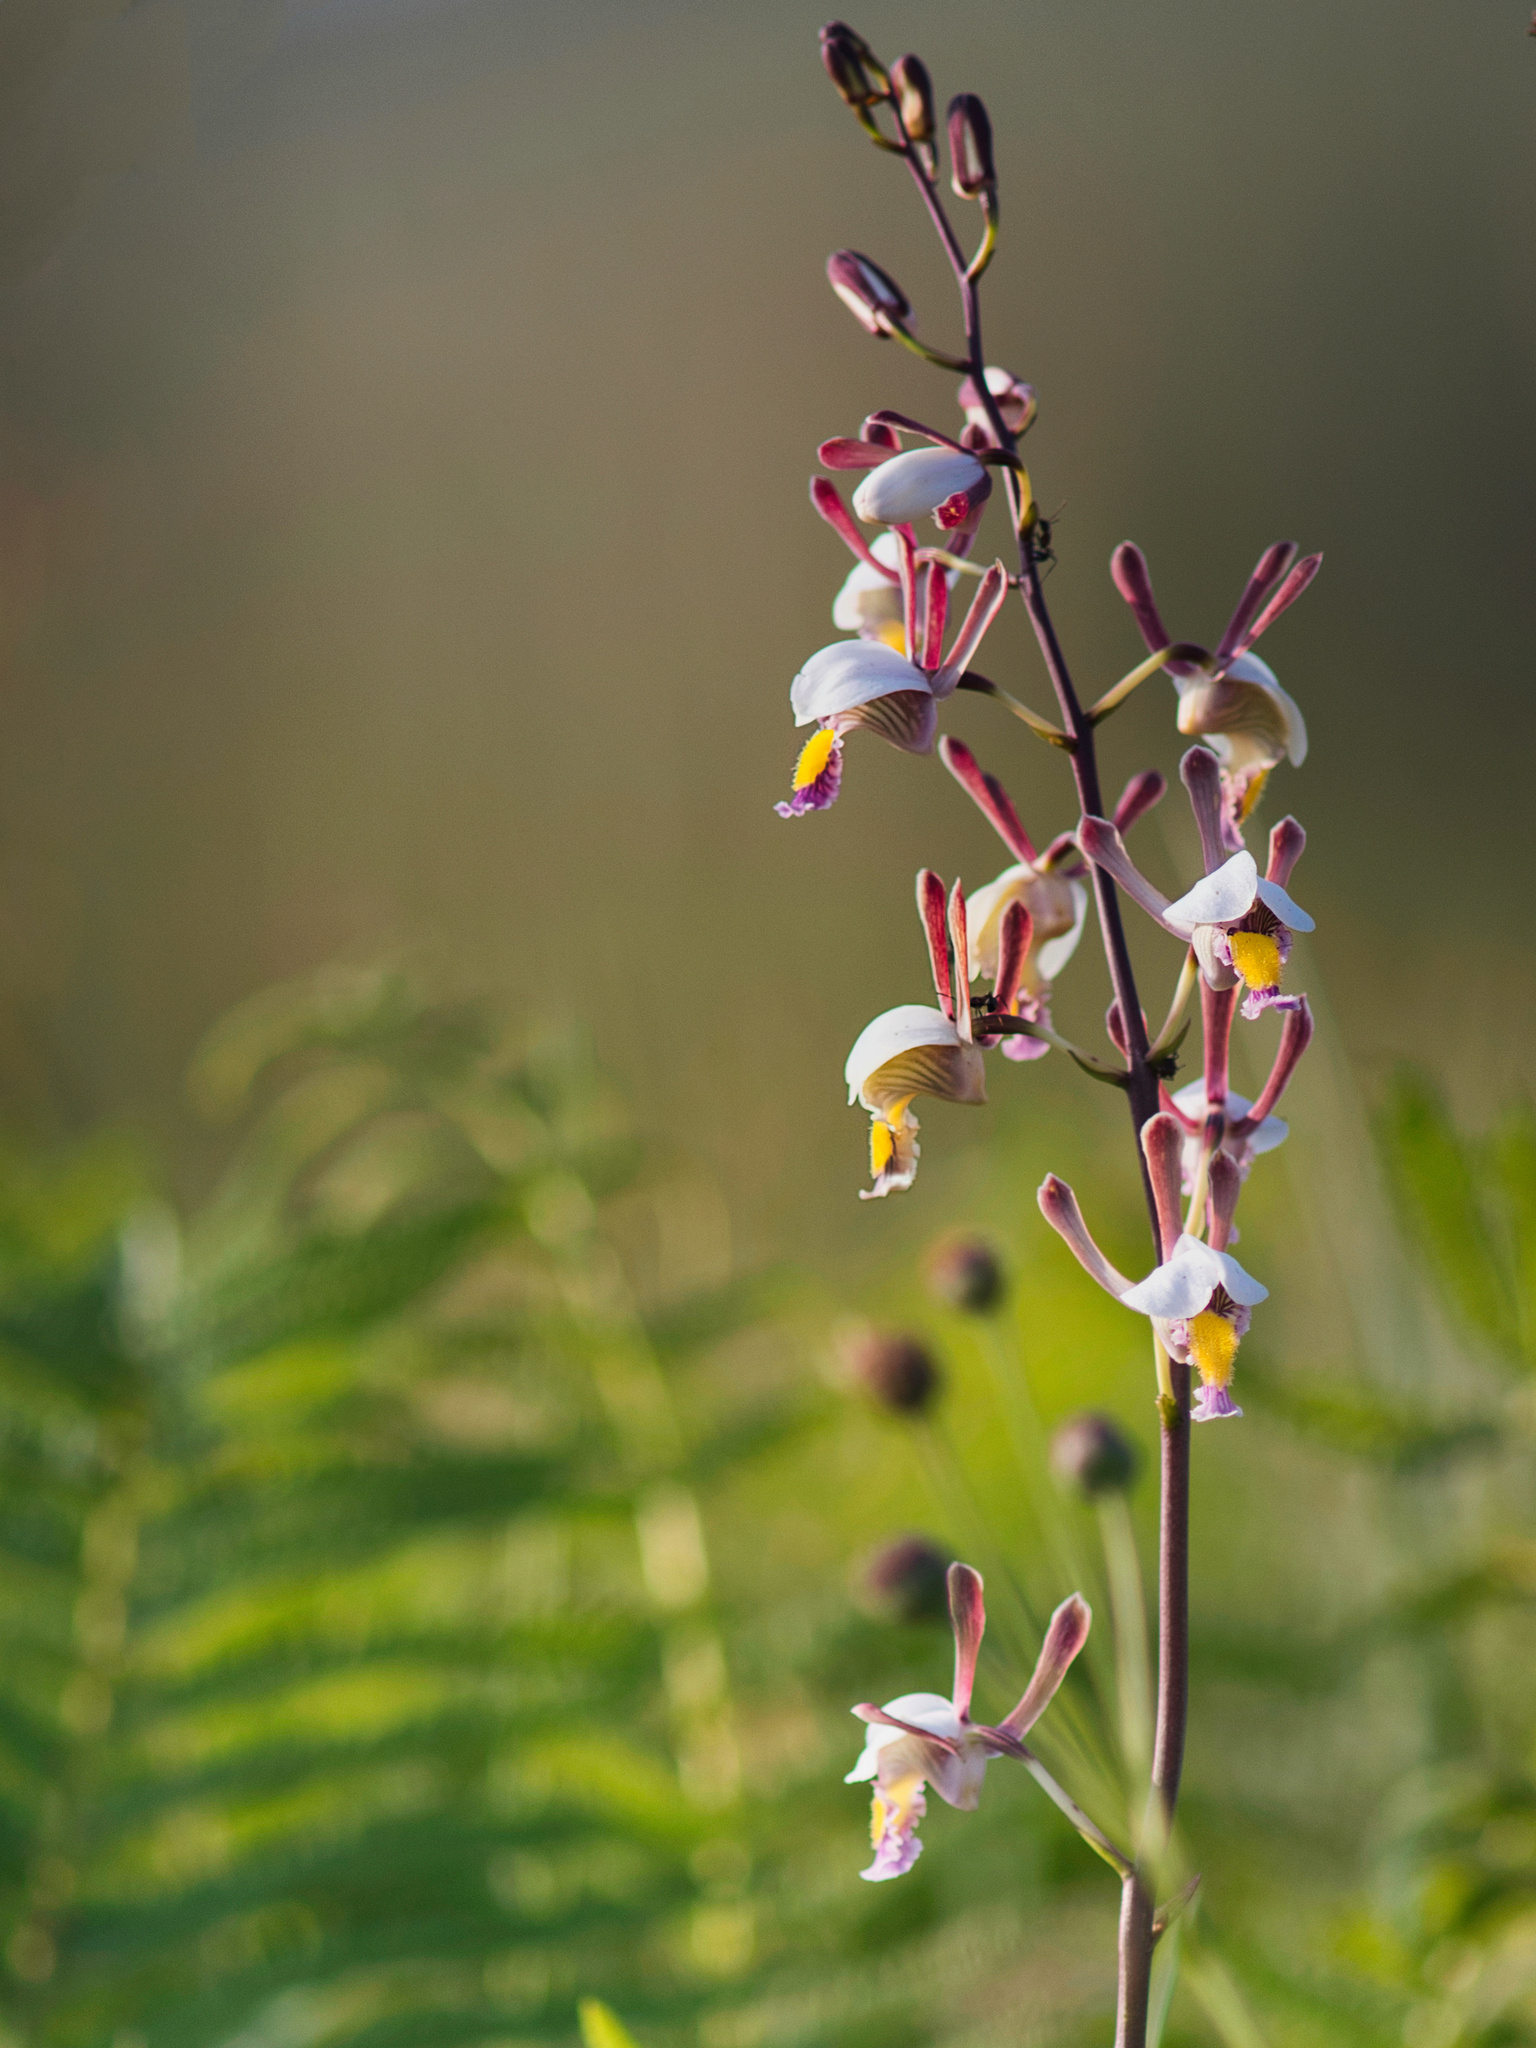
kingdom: Plantae
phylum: Tracheophyta
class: Liliopsida
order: Asparagales
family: Orchidaceae
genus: Eulophia
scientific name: Eulophia caricifolia
